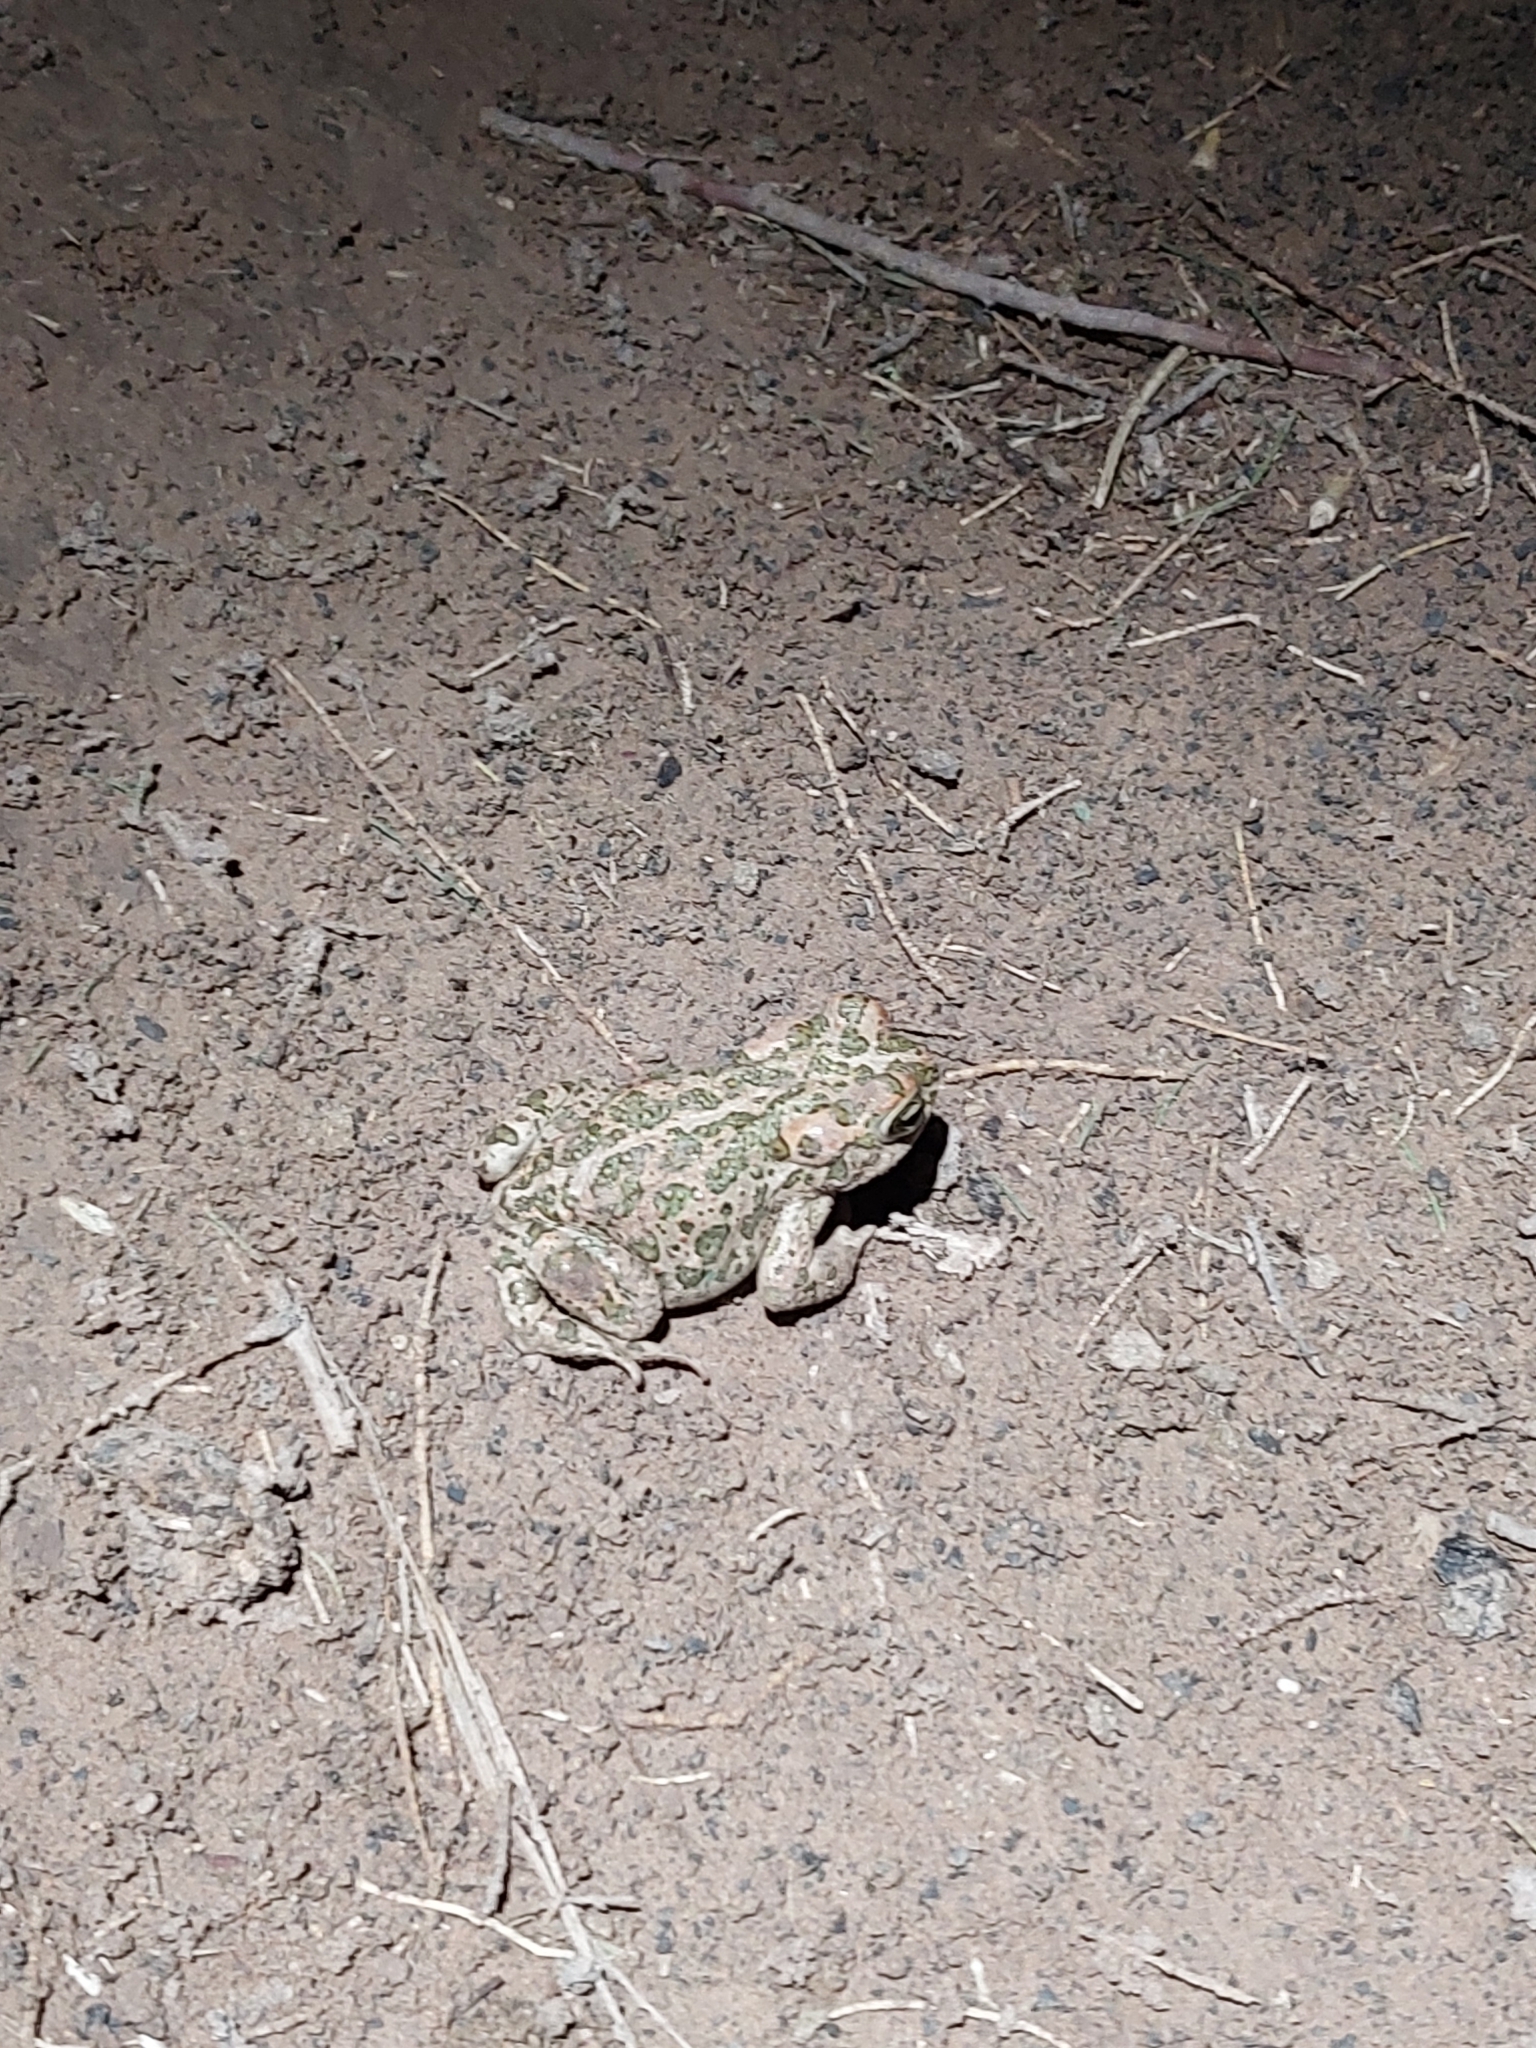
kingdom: Animalia
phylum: Chordata
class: Amphibia
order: Anura
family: Bufonidae
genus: Bufotes
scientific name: Bufotes boulengeri
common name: African green toad
